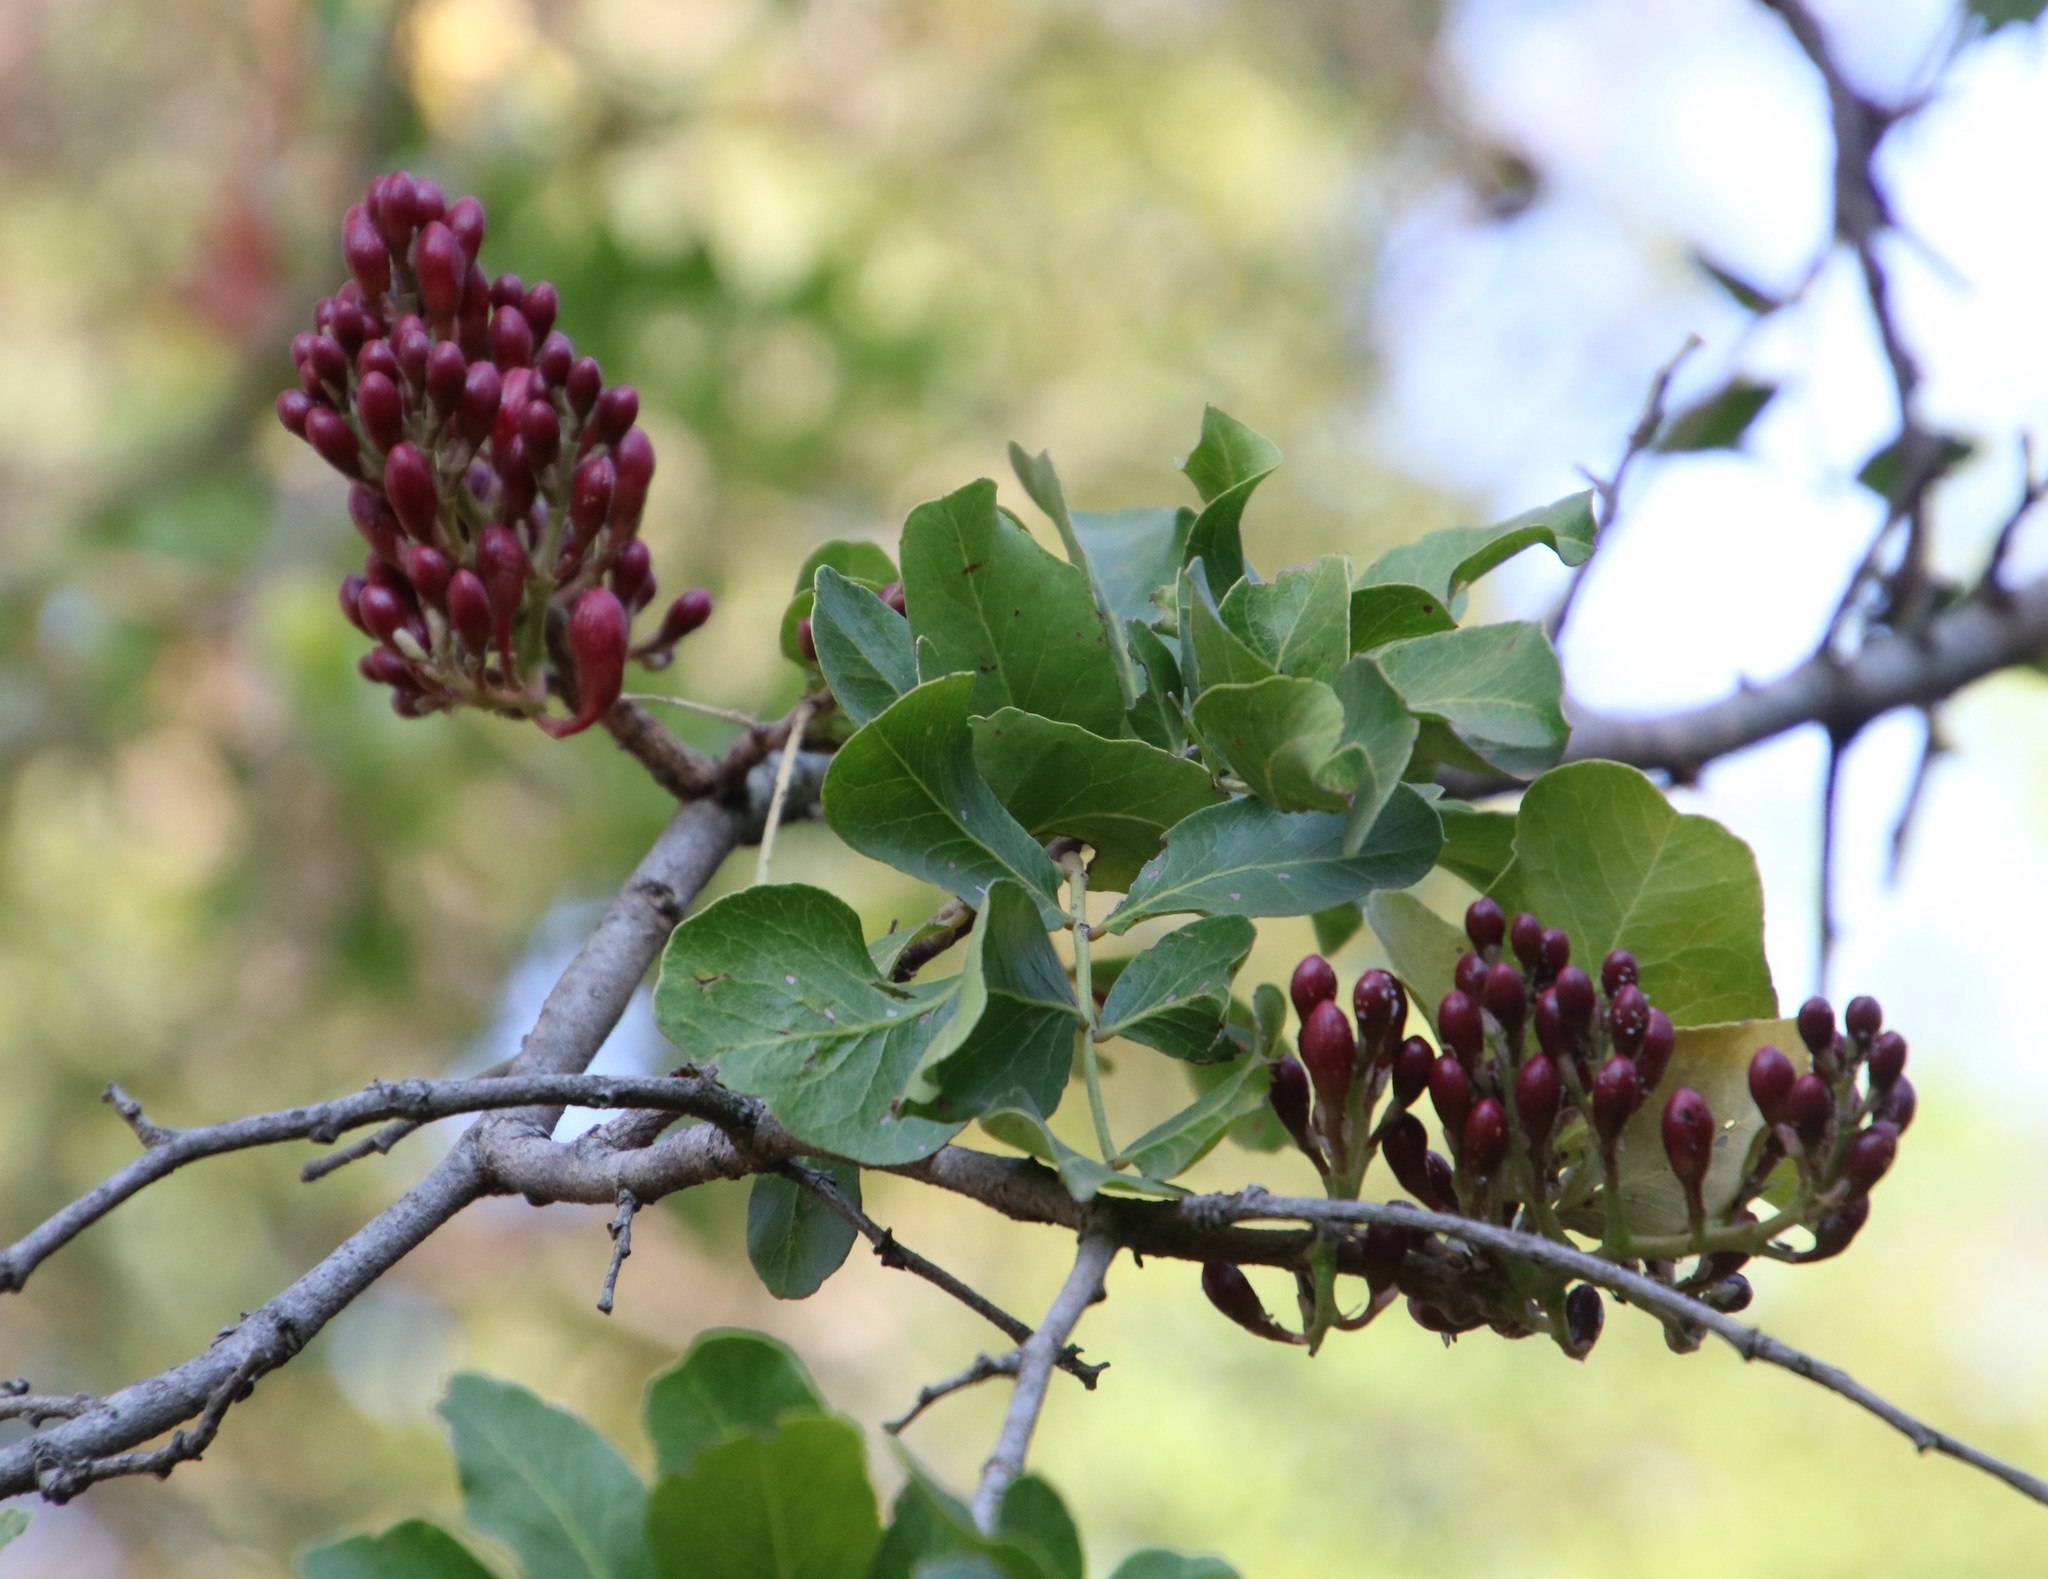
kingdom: Plantae
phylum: Tracheophyta
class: Magnoliopsida
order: Fabales
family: Fabaceae
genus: Schotia
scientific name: Schotia brachypetala
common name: Weeping boer-bean
